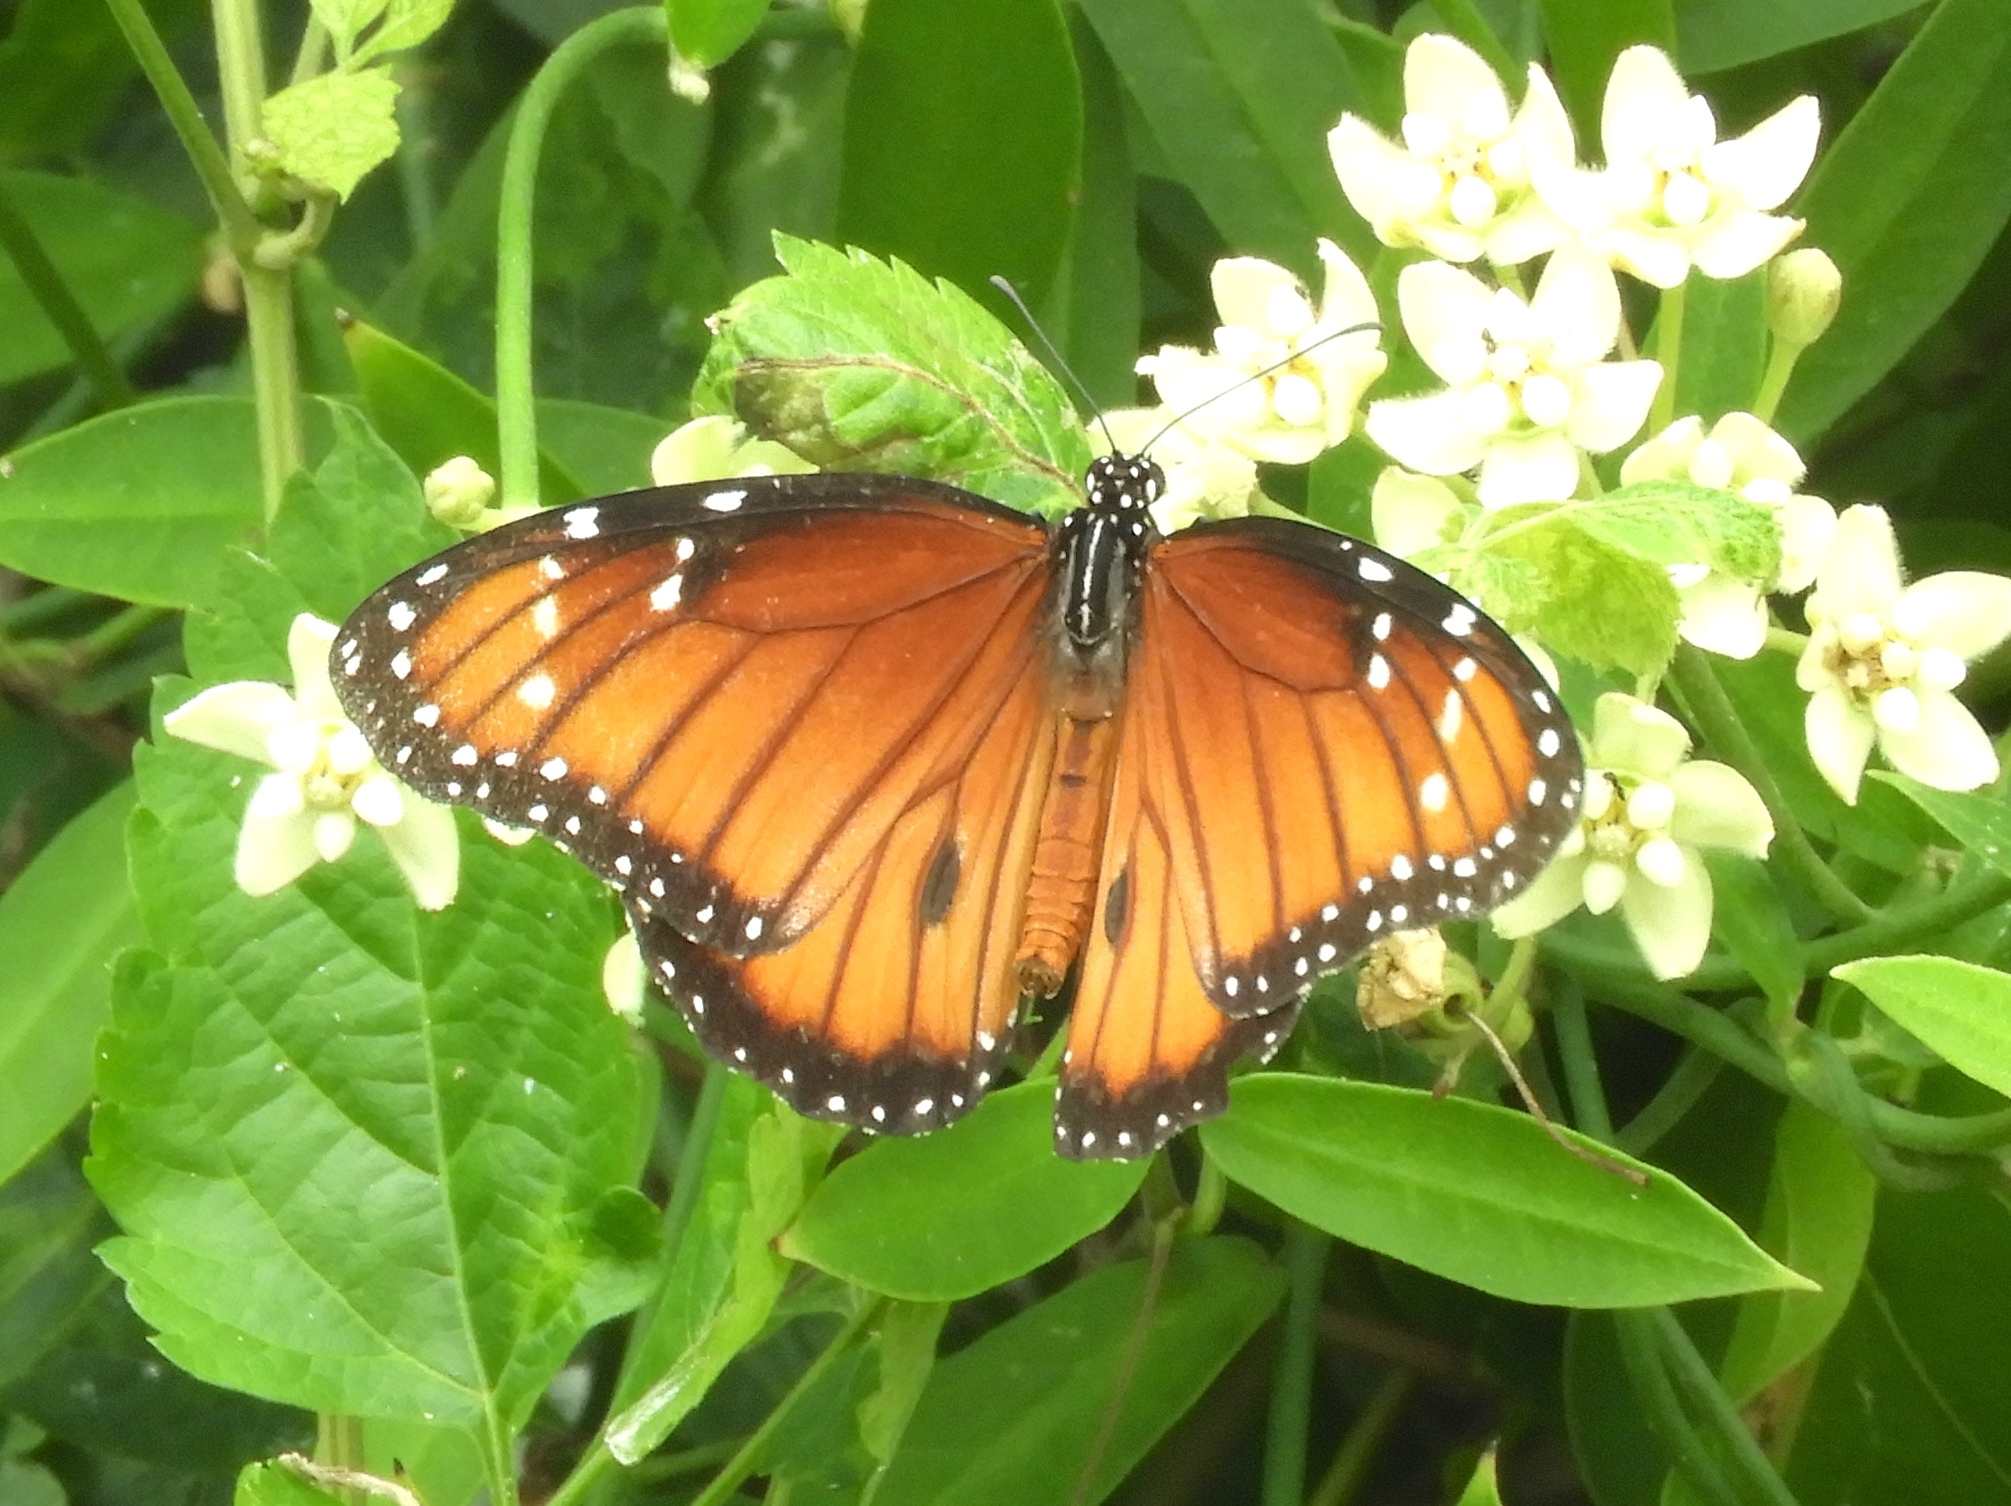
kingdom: Animalia
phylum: Arthropoda
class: Insecta
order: Lepidoptera
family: Nymphalidae
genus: Danaus
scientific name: Danaus eresimus
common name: Soldier
